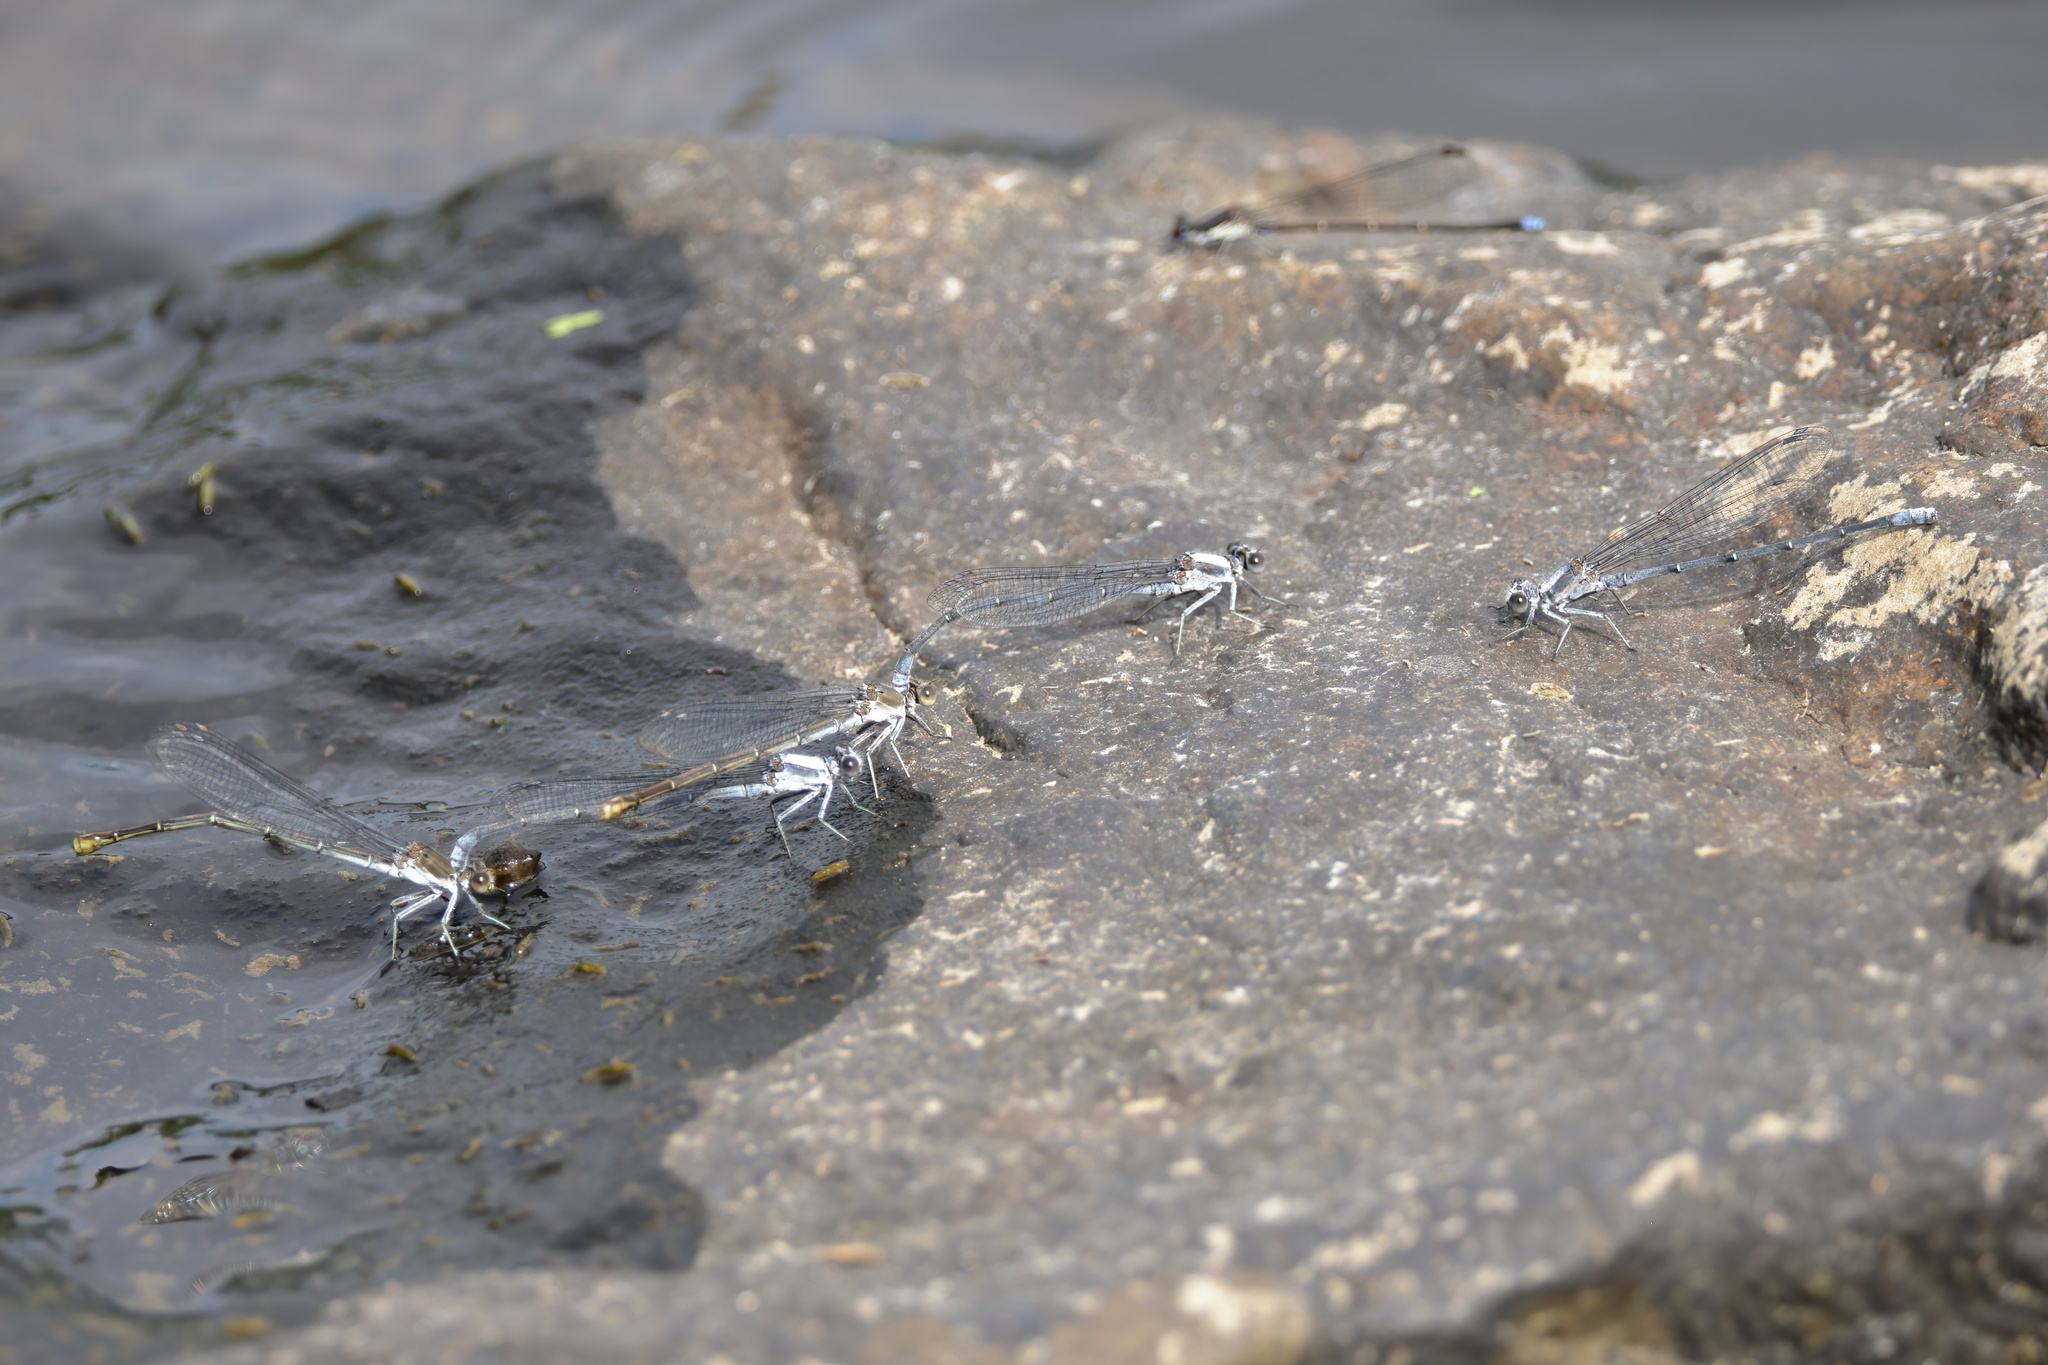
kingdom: Animalia
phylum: Arthropoda
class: Insecta
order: Odonata
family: Coenagrionidae
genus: Argia
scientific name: Argia moesta
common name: Powdered dancer
